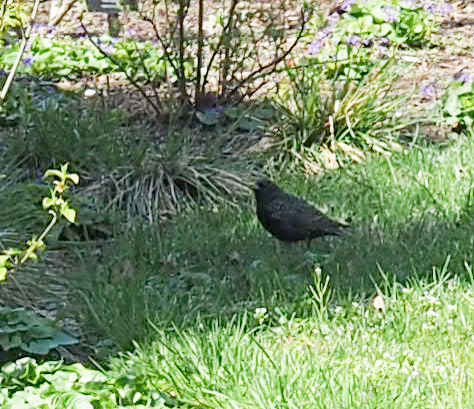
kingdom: Animalia
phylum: Chordata
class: Aves
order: Passeriformes
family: Sturnidae
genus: Sturnus
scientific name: Sturnus vulgaris
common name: Common starling
